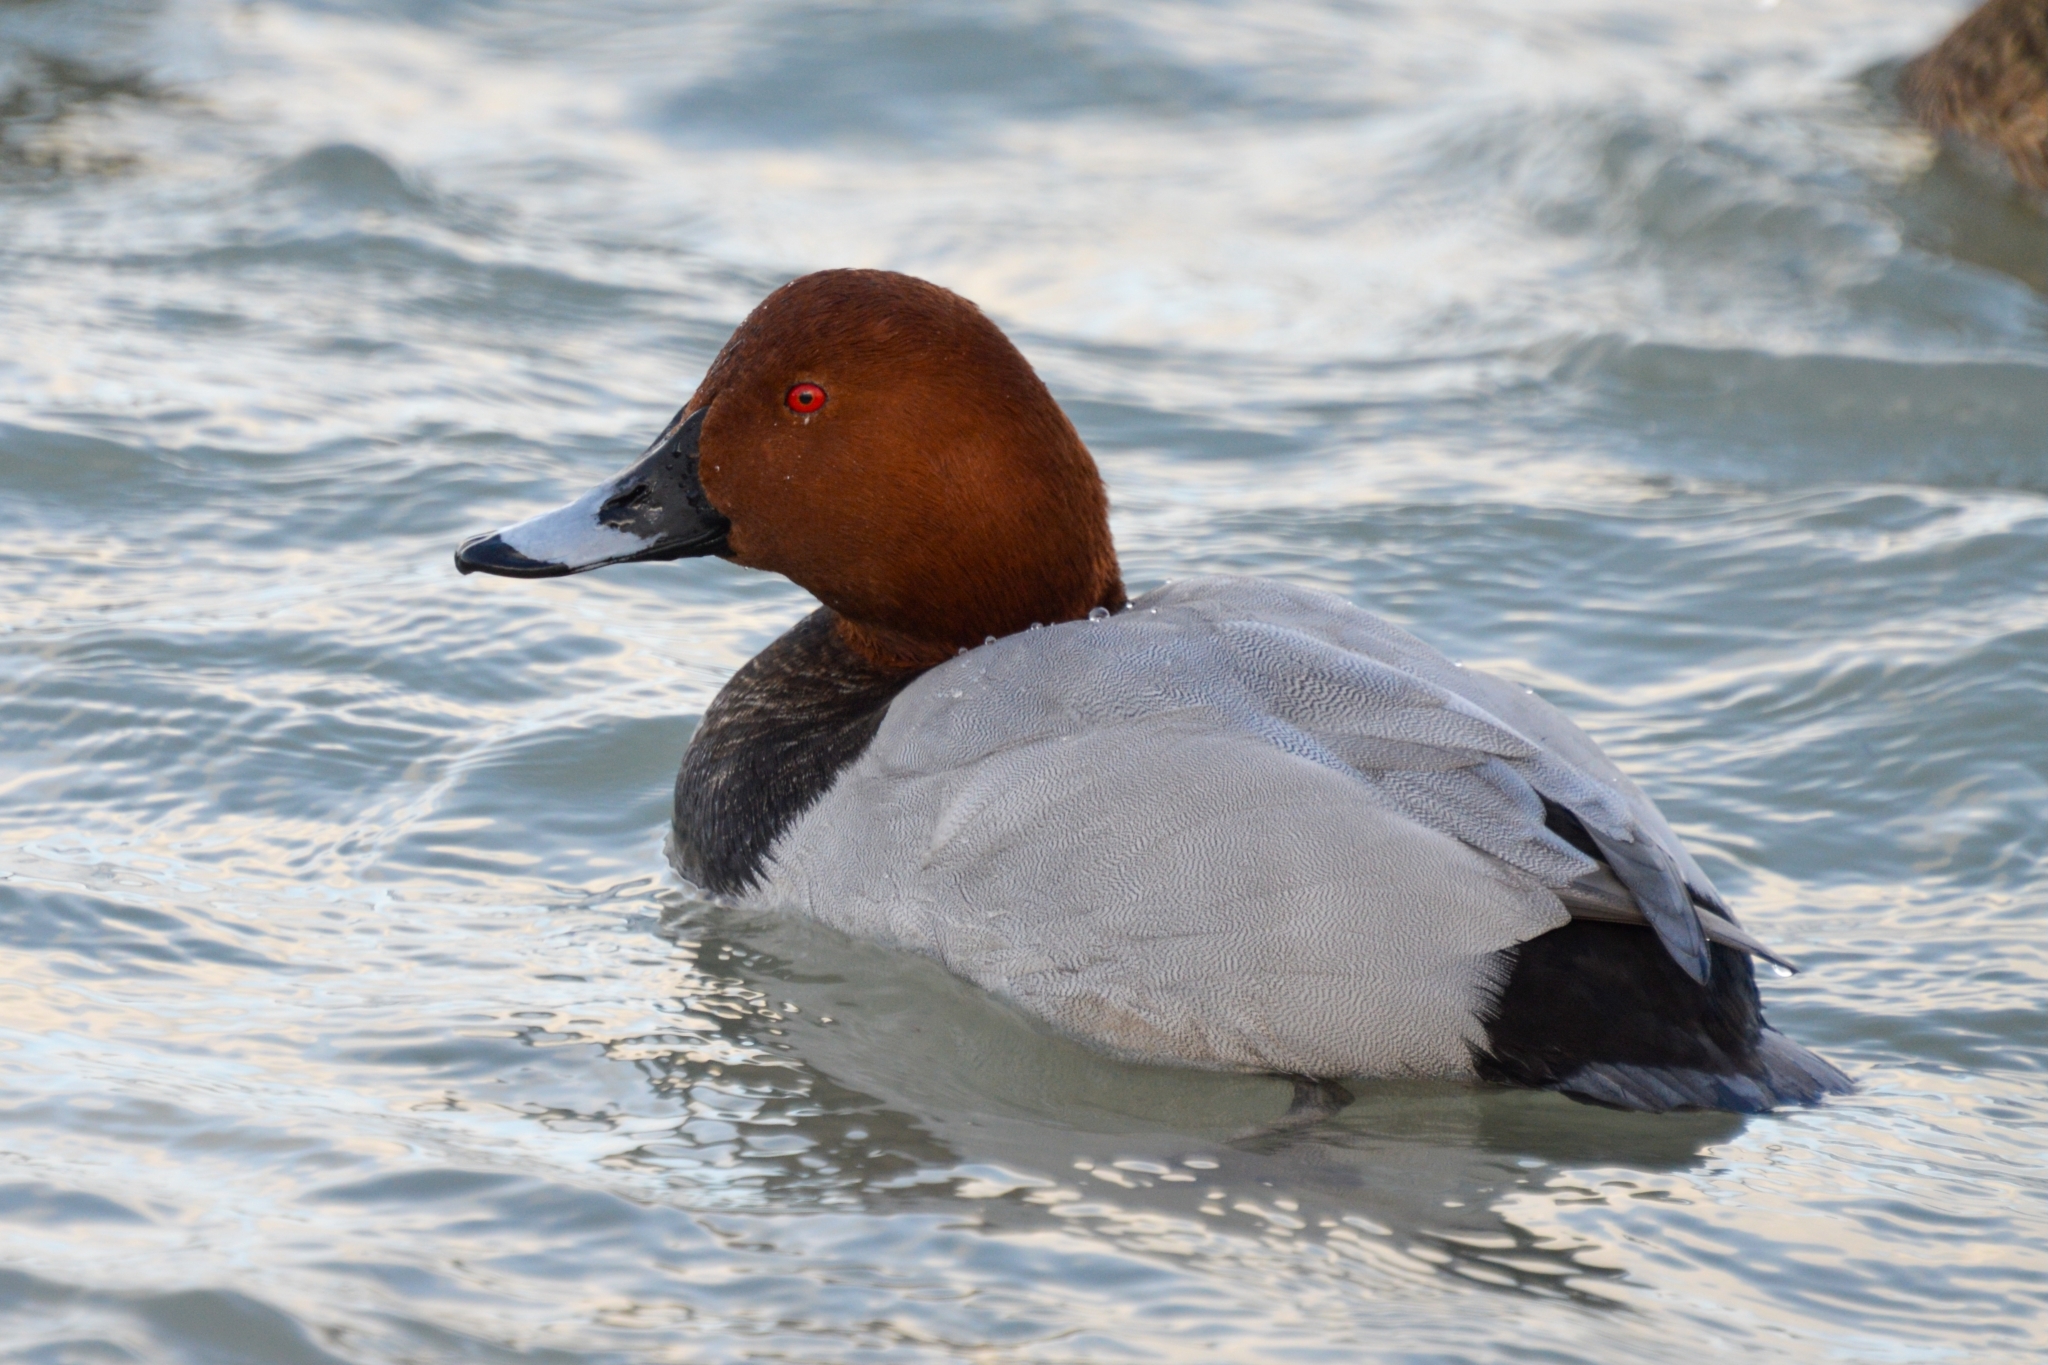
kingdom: Animalia
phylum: Chordata
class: Aves
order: Anseriformes
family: Anatidae
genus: Aythya
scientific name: Aythya ferina
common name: Common pochard
